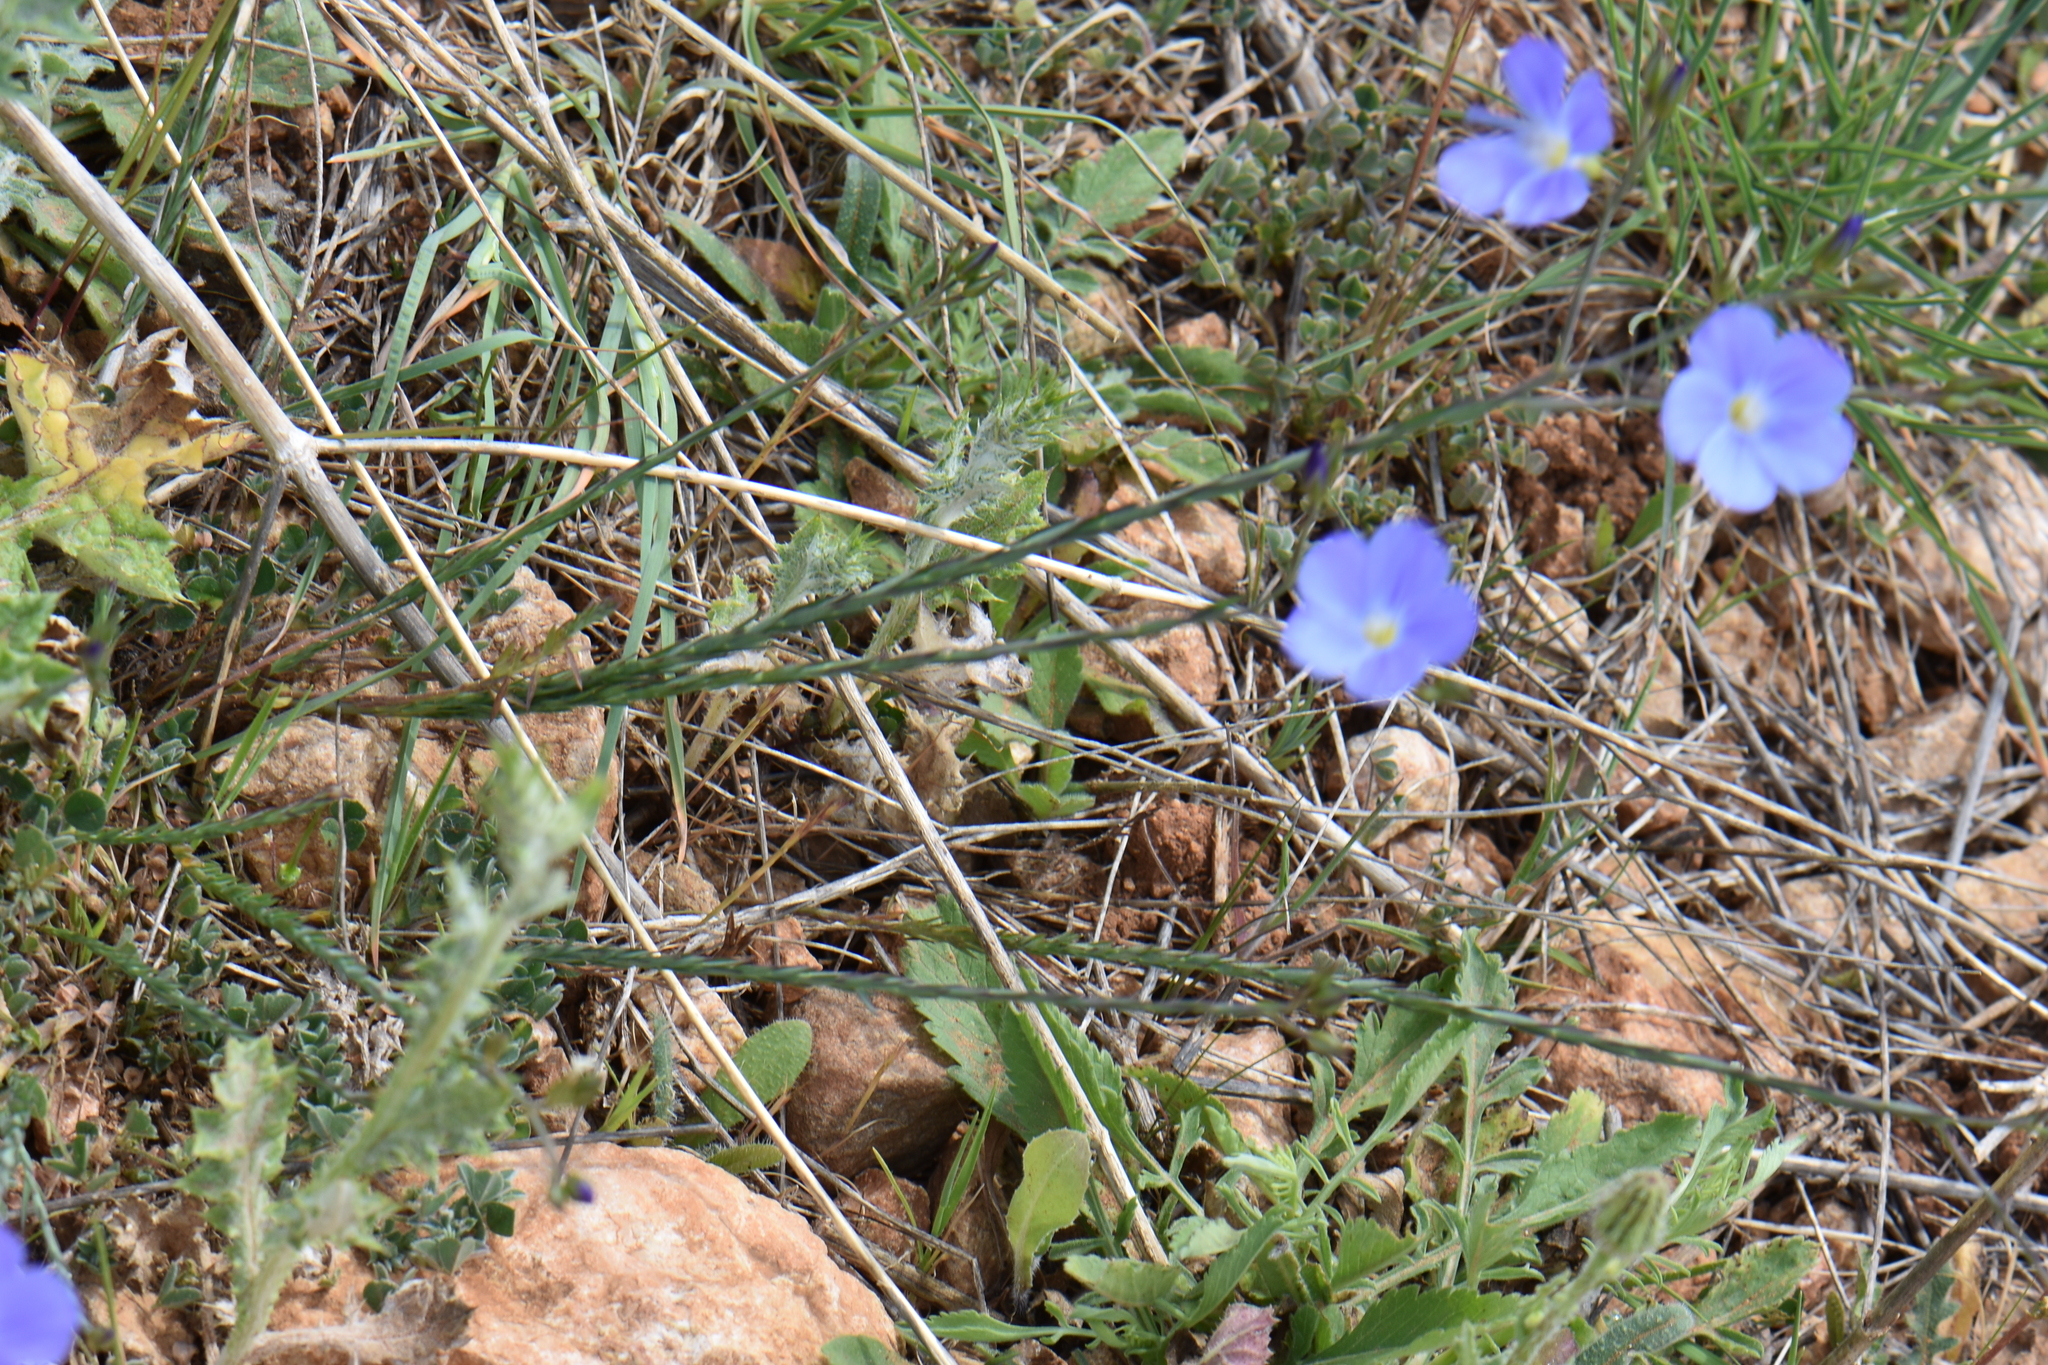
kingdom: Plantae
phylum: Tracheophyta
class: Magnoliopsida
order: Malpighiales
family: Linaceae
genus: Linum
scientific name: Linum narbonense
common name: Flax
